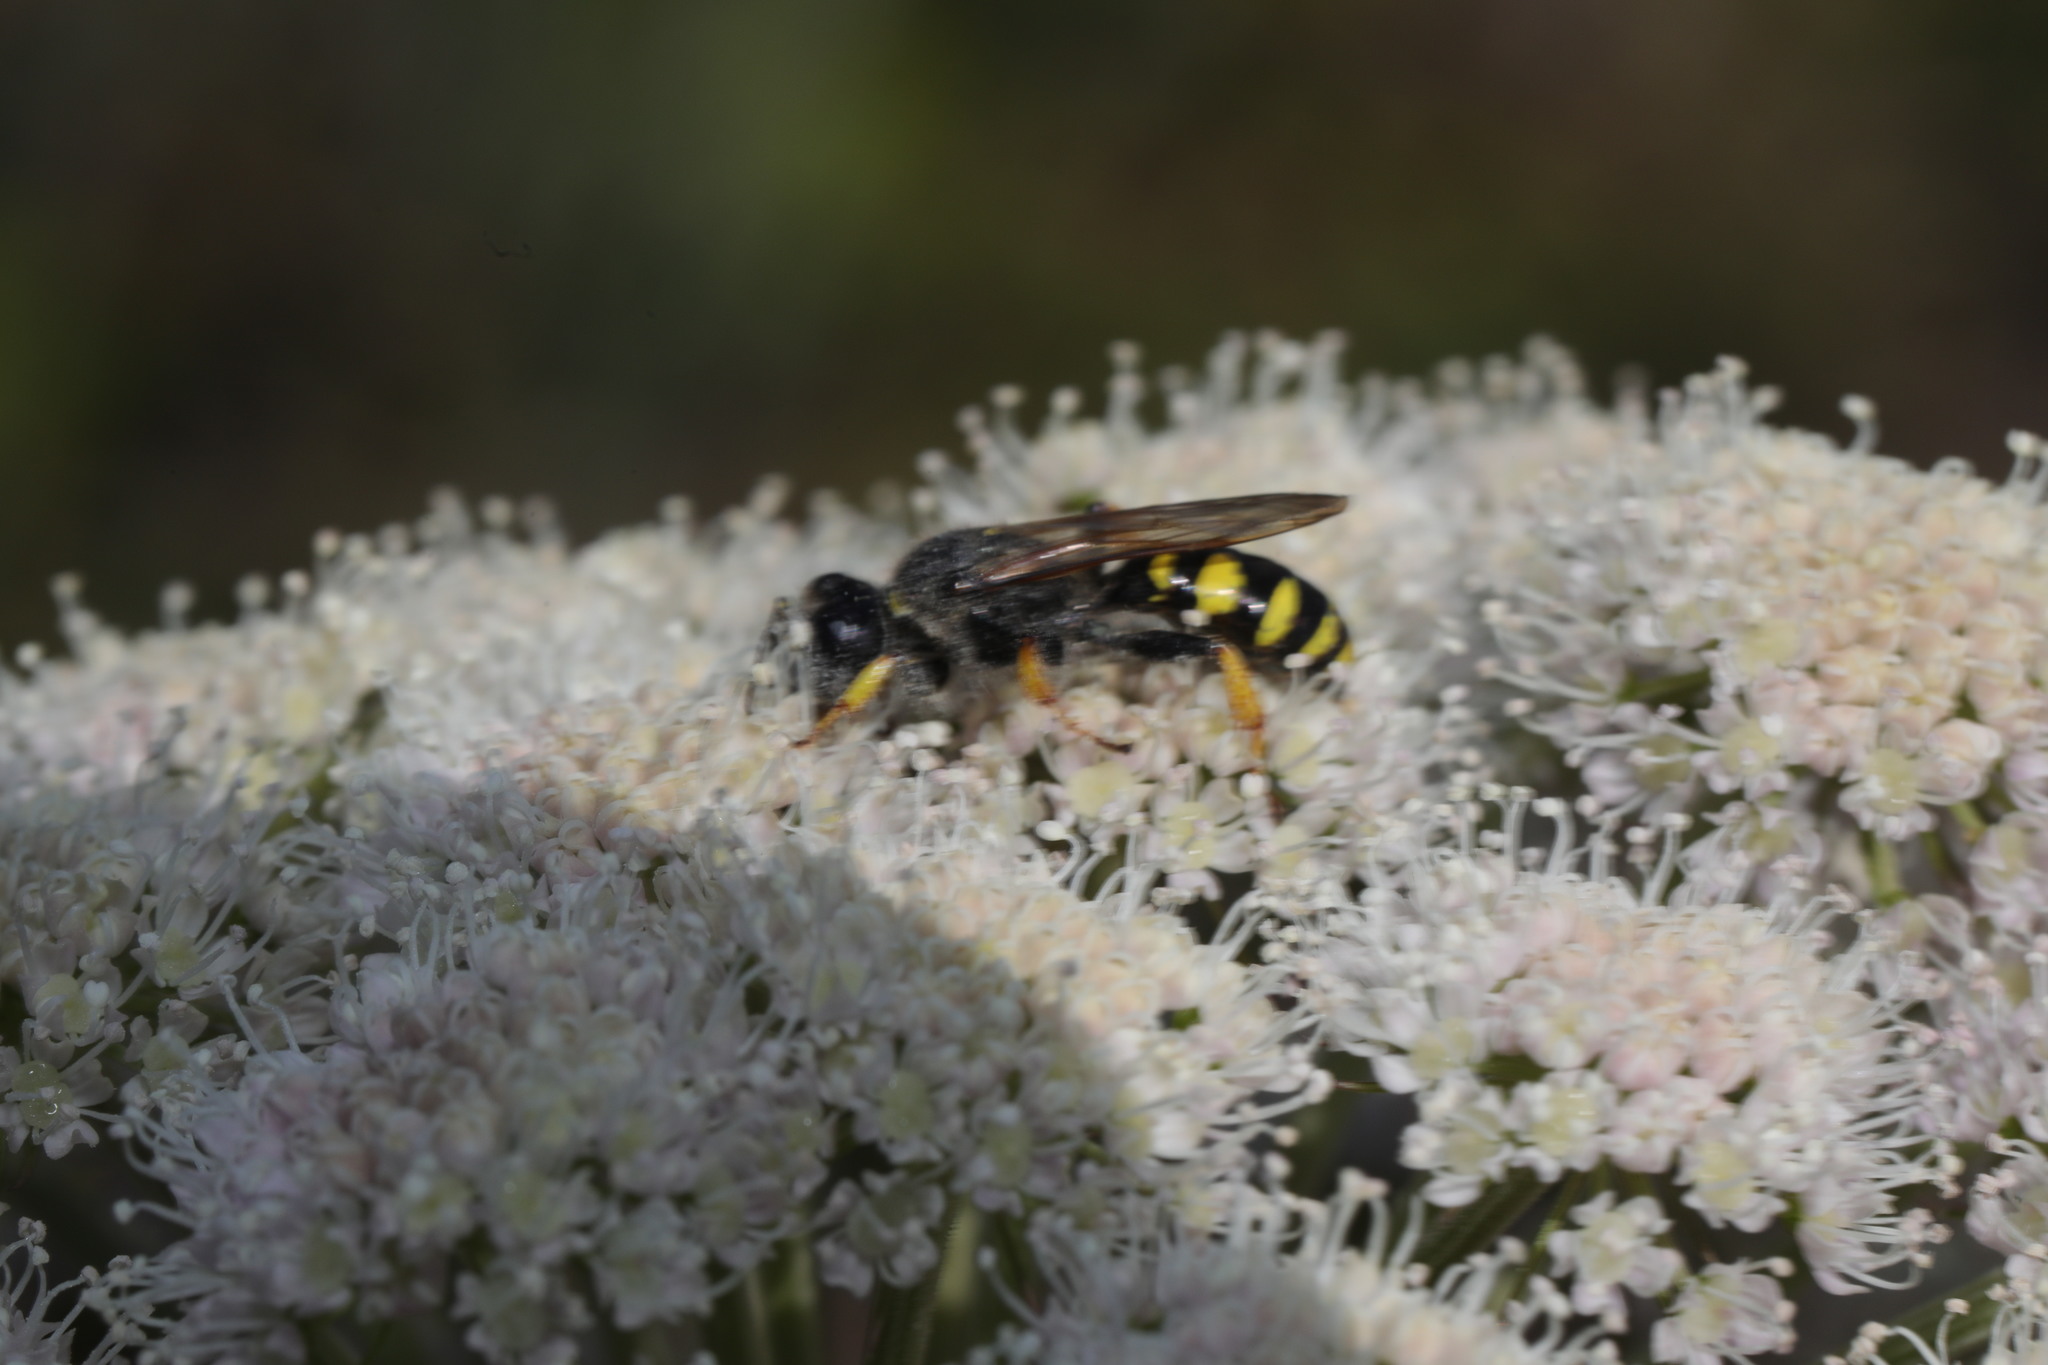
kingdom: Animalia
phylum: Arthropoda
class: Insecta
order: Hymenoptera
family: Crabronidae
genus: Crabro
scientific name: Crabro cribrarius
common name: Slender bodied digger wasp
